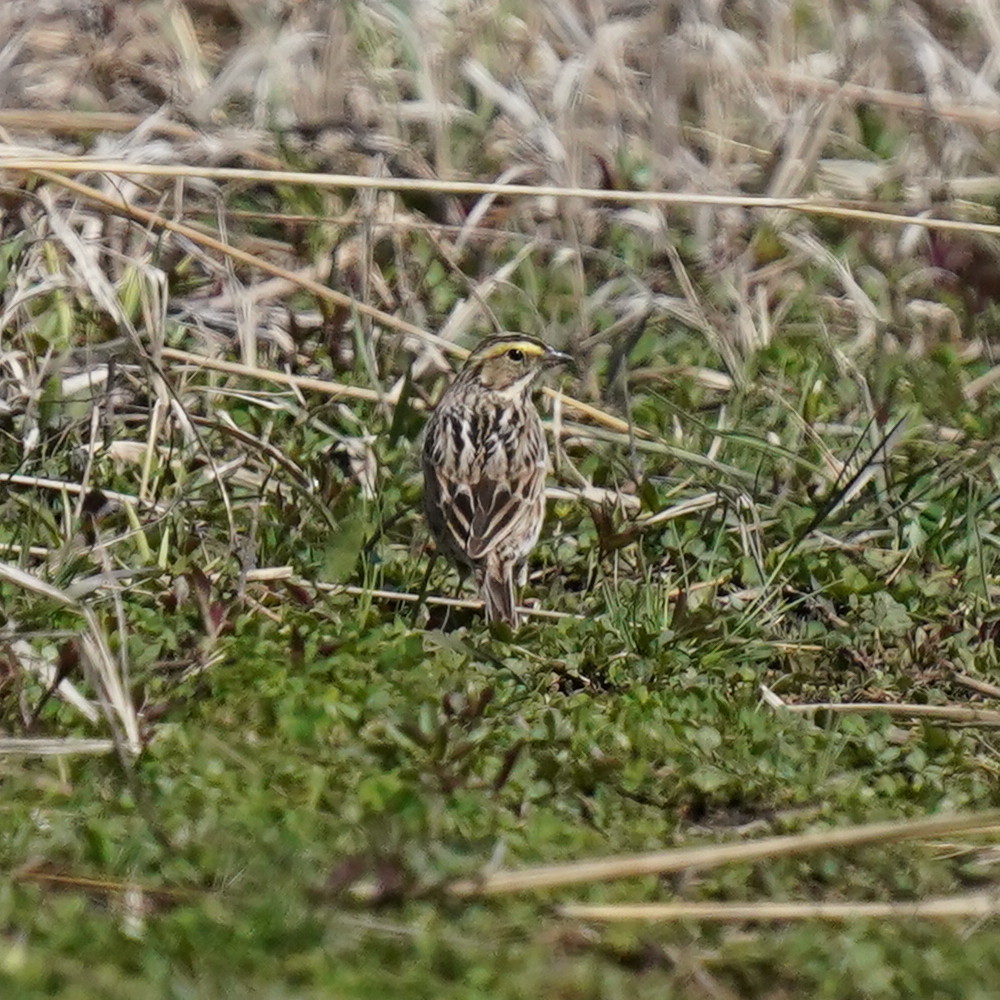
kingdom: Animalia
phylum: Chordata
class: Aves
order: Passeriformes
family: Passerellidae
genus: Passerculus
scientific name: Passerculus sandwichensis
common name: Savannah sparrow
